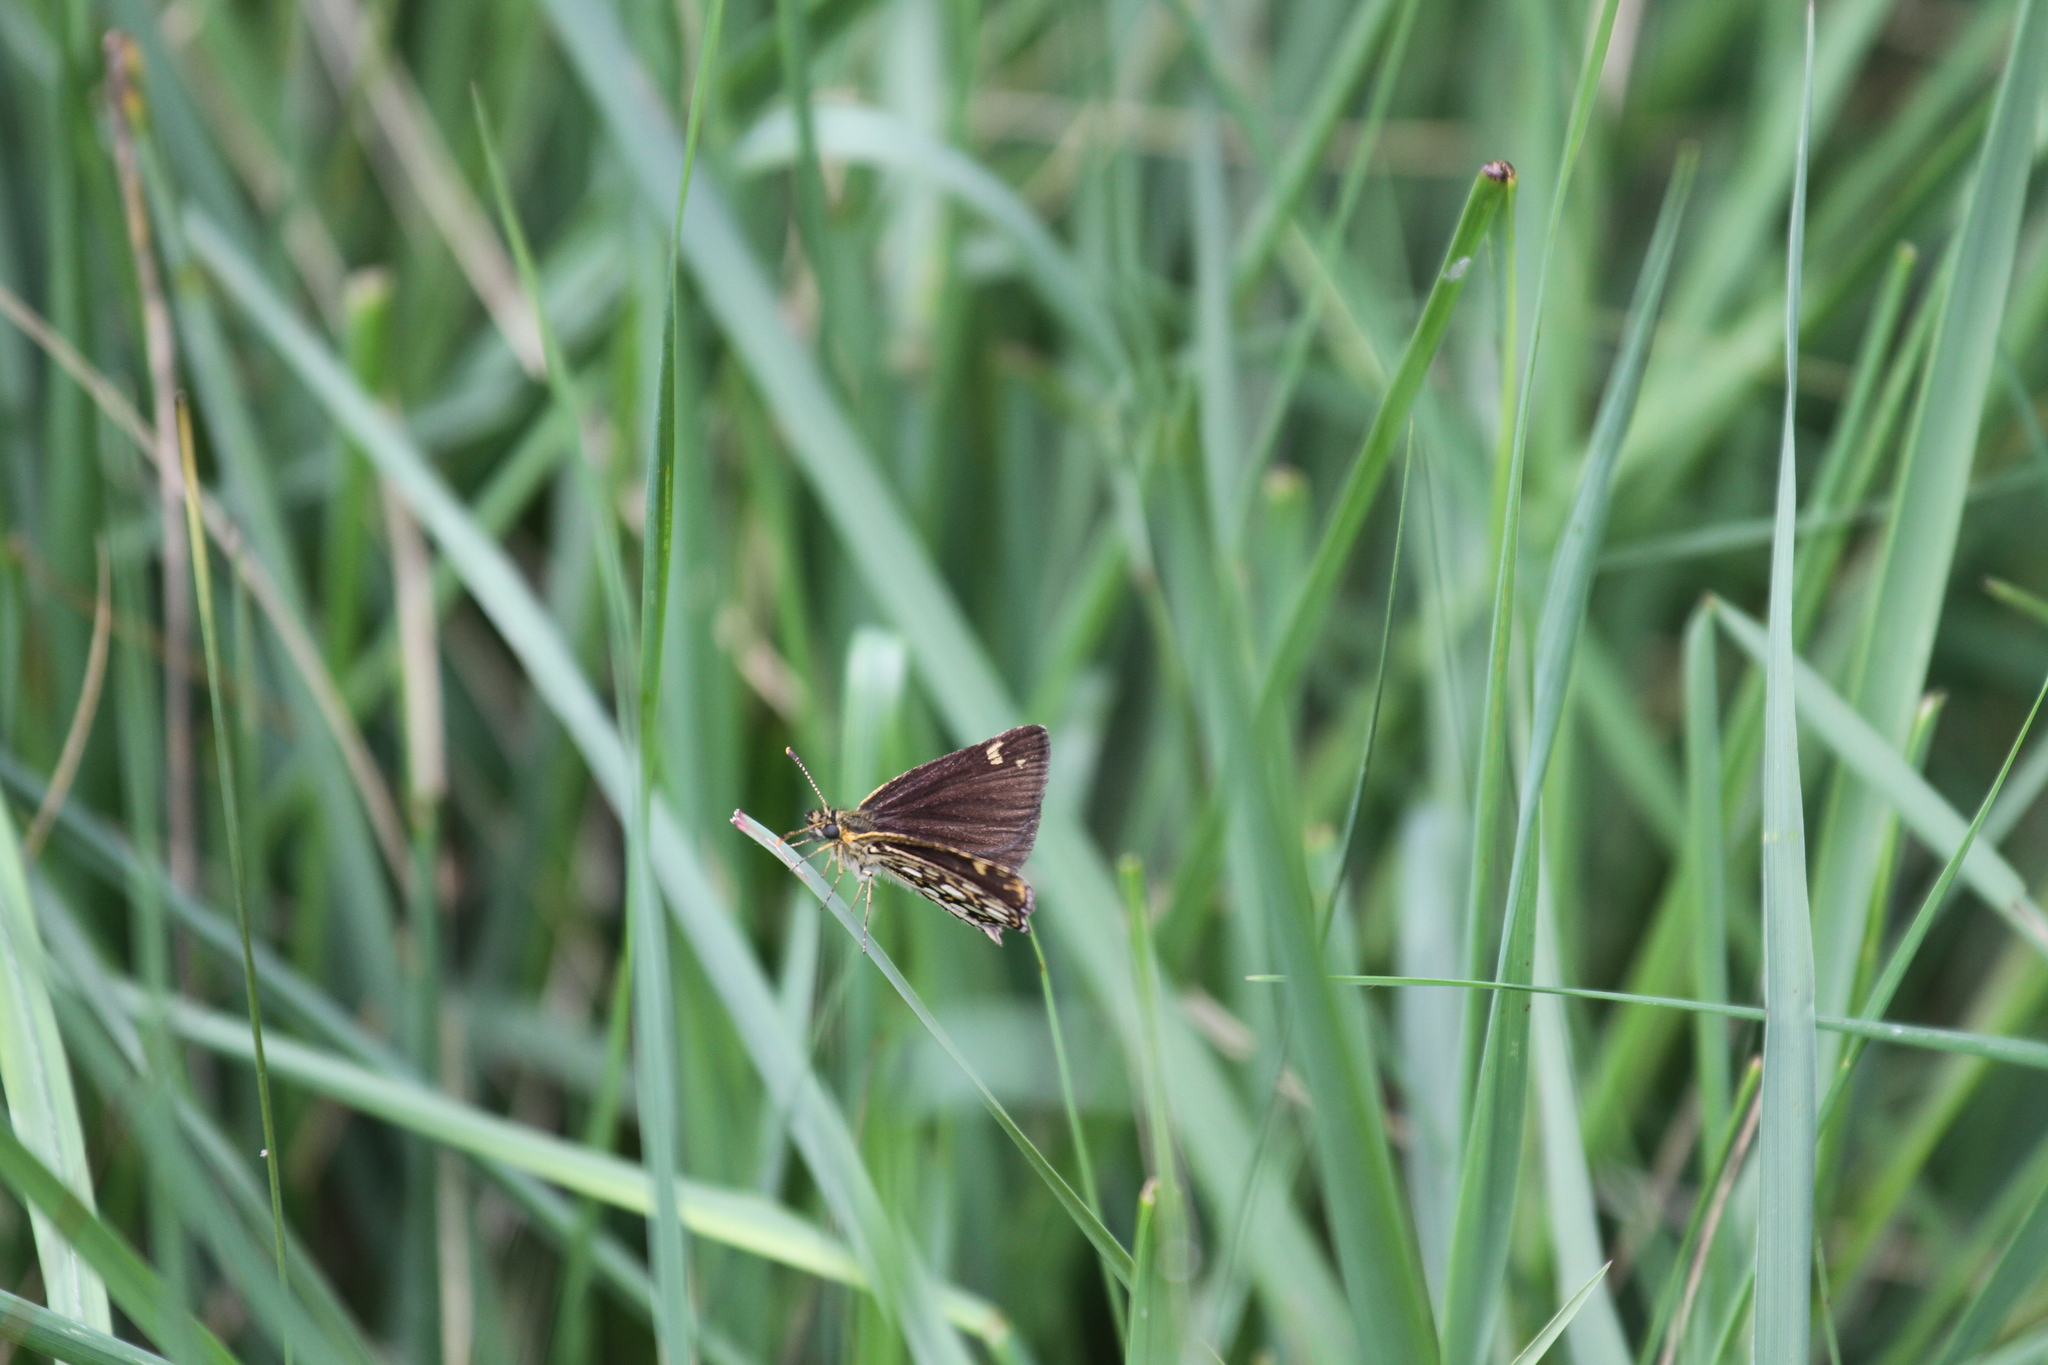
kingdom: Animalia
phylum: Arthropoda
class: Insecta
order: Lepidoptera
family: Hesperiidae
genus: Heteropterus
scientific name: Heteropterus morpheus
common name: Large chequered skipper
